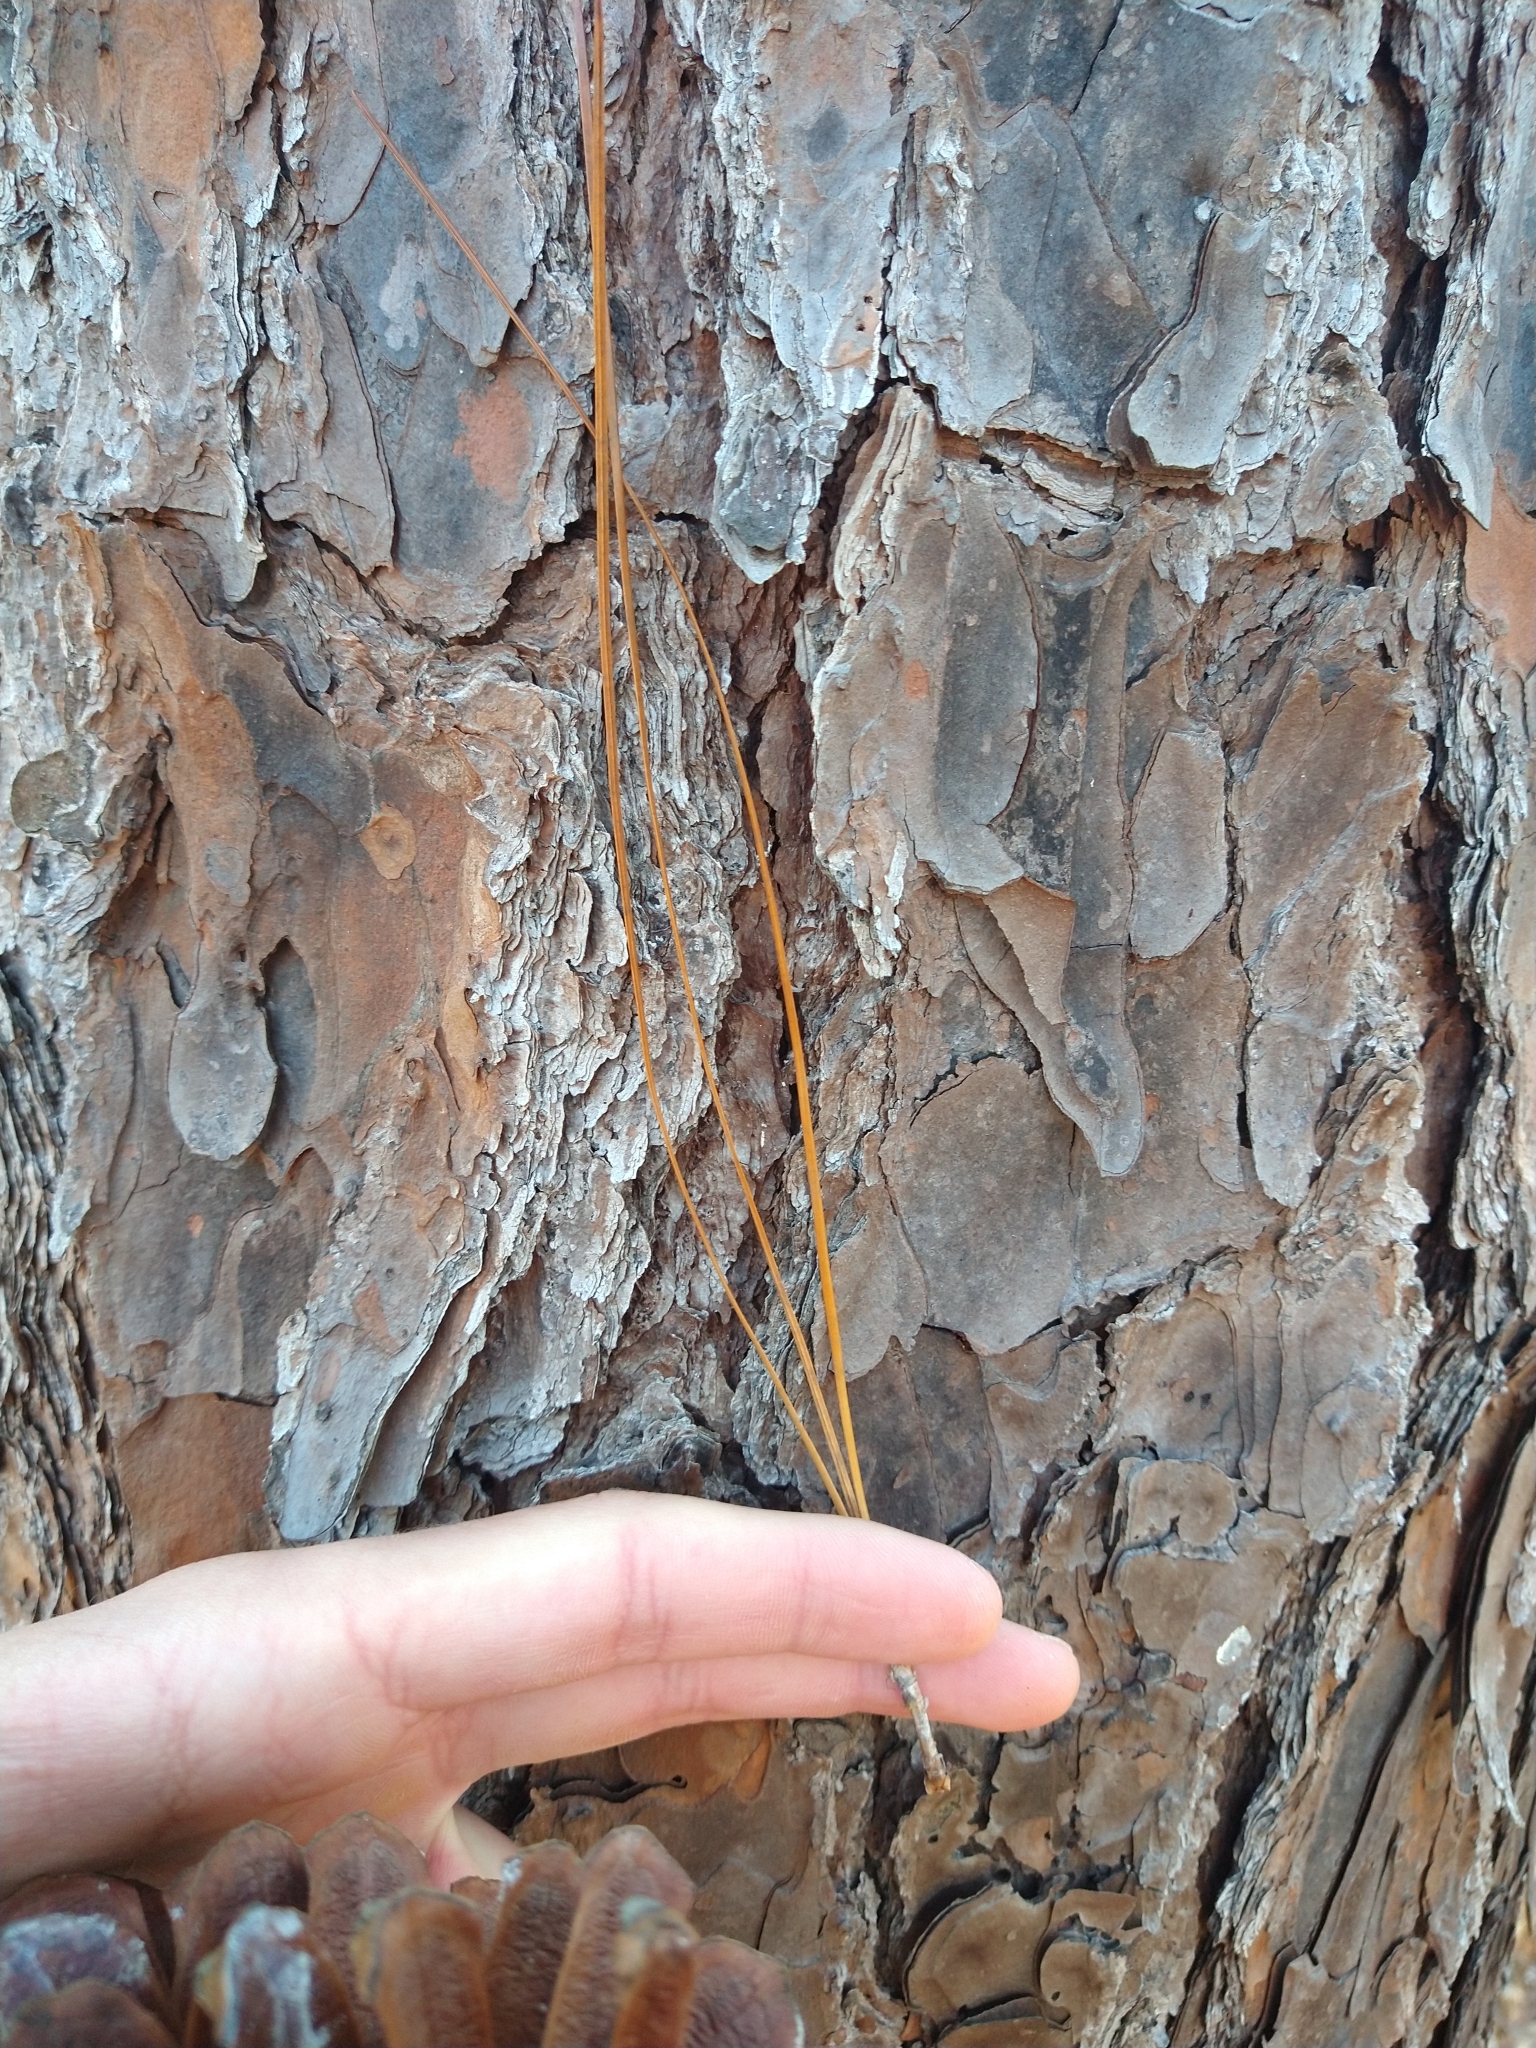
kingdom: Plantae
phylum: Tracheophyta
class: Pinopsida
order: Pinales
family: Pinaceae
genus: Pinus
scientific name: Pinus palustris
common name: Longleaf pine
